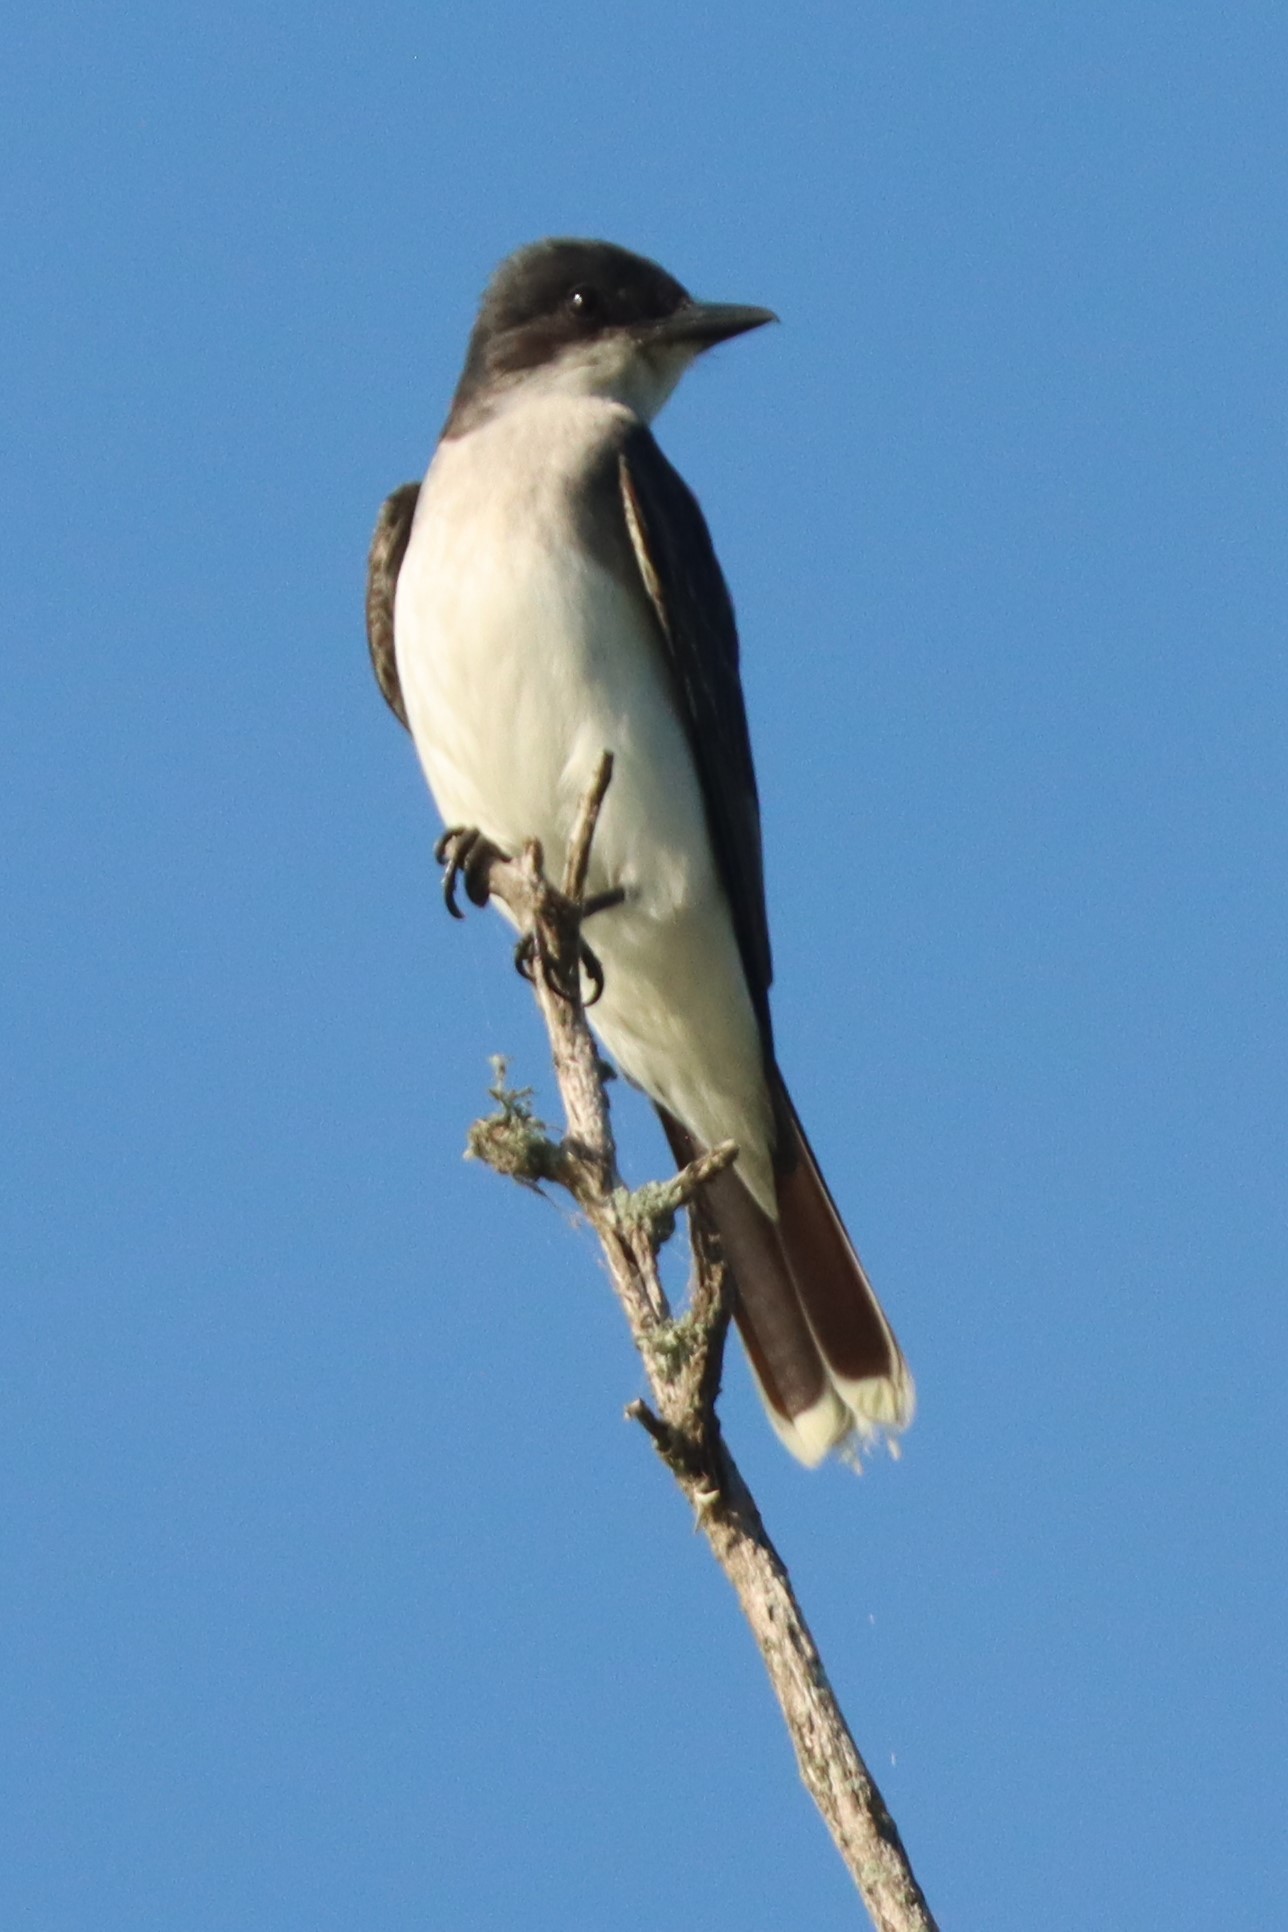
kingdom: Animalia
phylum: Chordata
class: Aves
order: Passeriformes
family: Tyrannidae
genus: Tyrannus
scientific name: Tyrannus tyrannus
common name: Eastern kingbird
